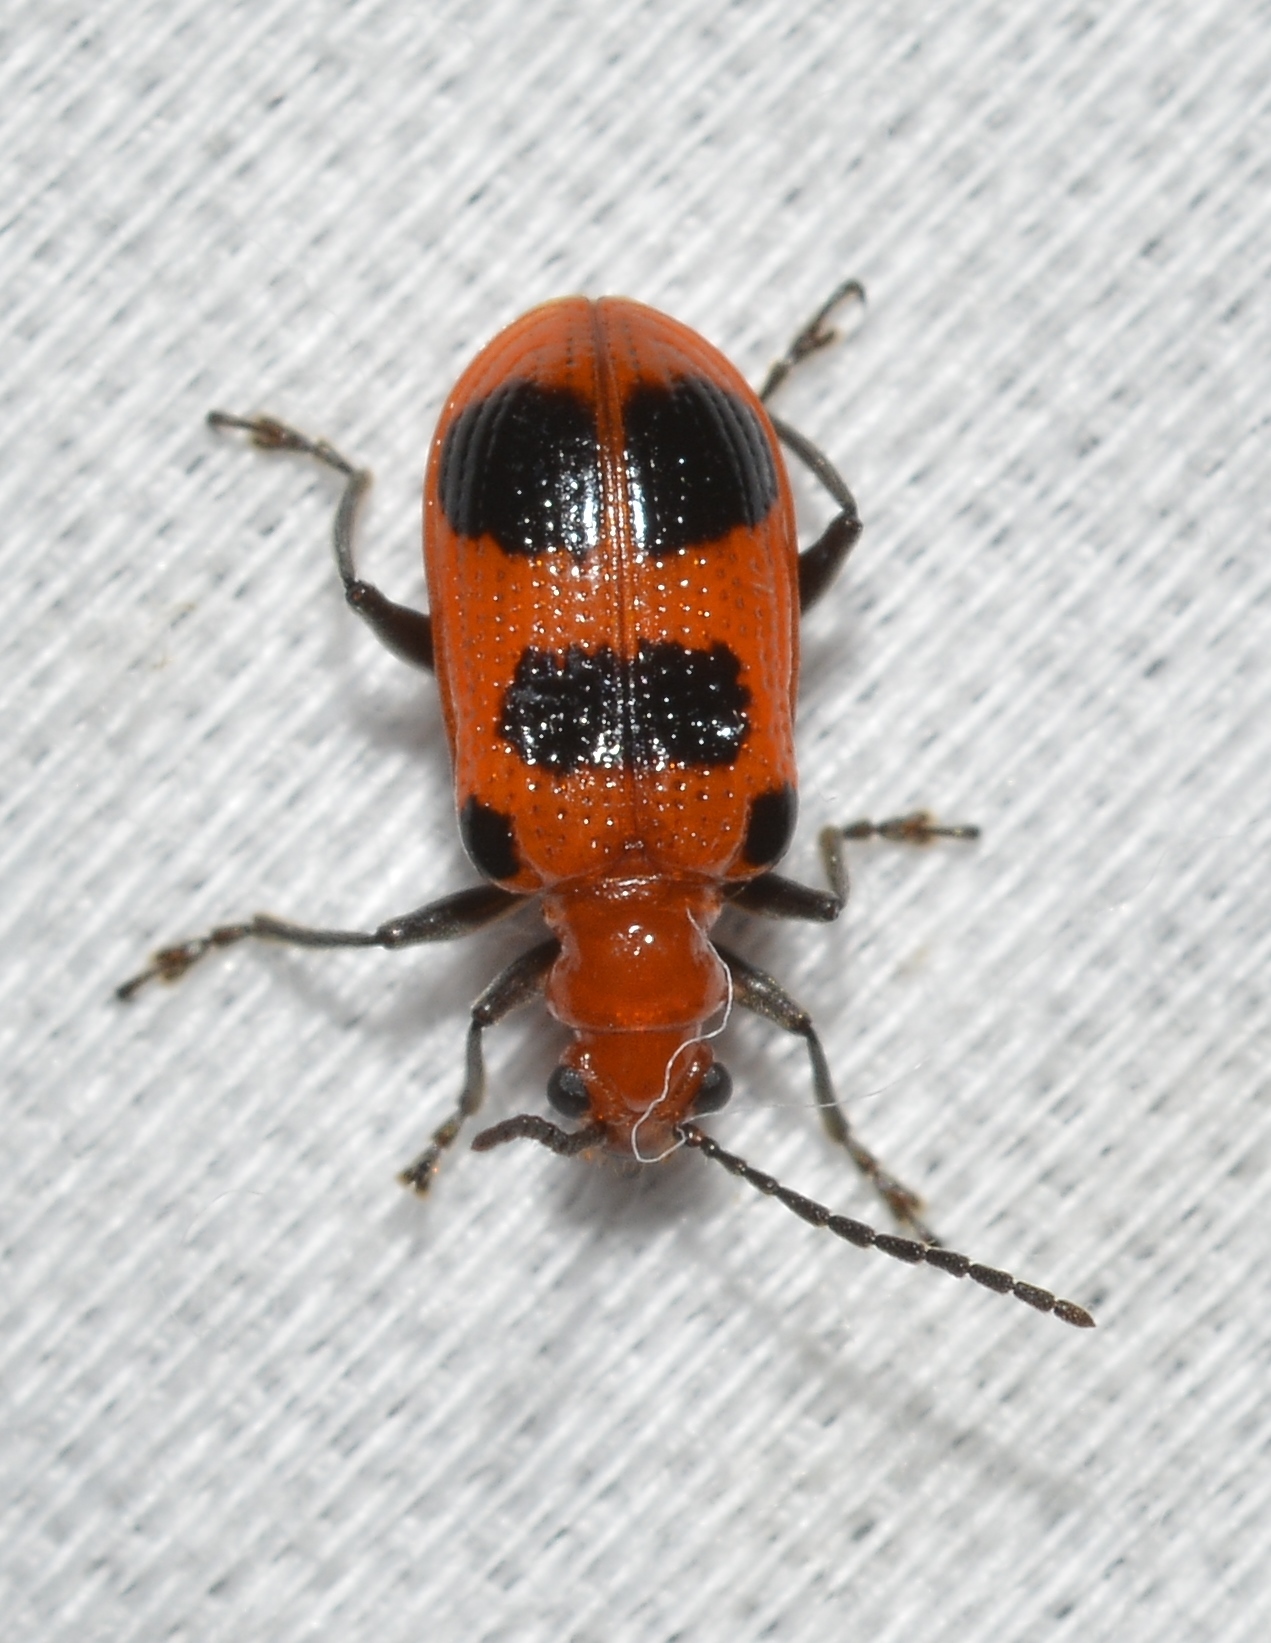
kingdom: Animalia
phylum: Arthropoda
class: Insecta
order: Coleoptera
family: Chrysomelidae
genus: Neolema
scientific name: Neolema sexpunctata
